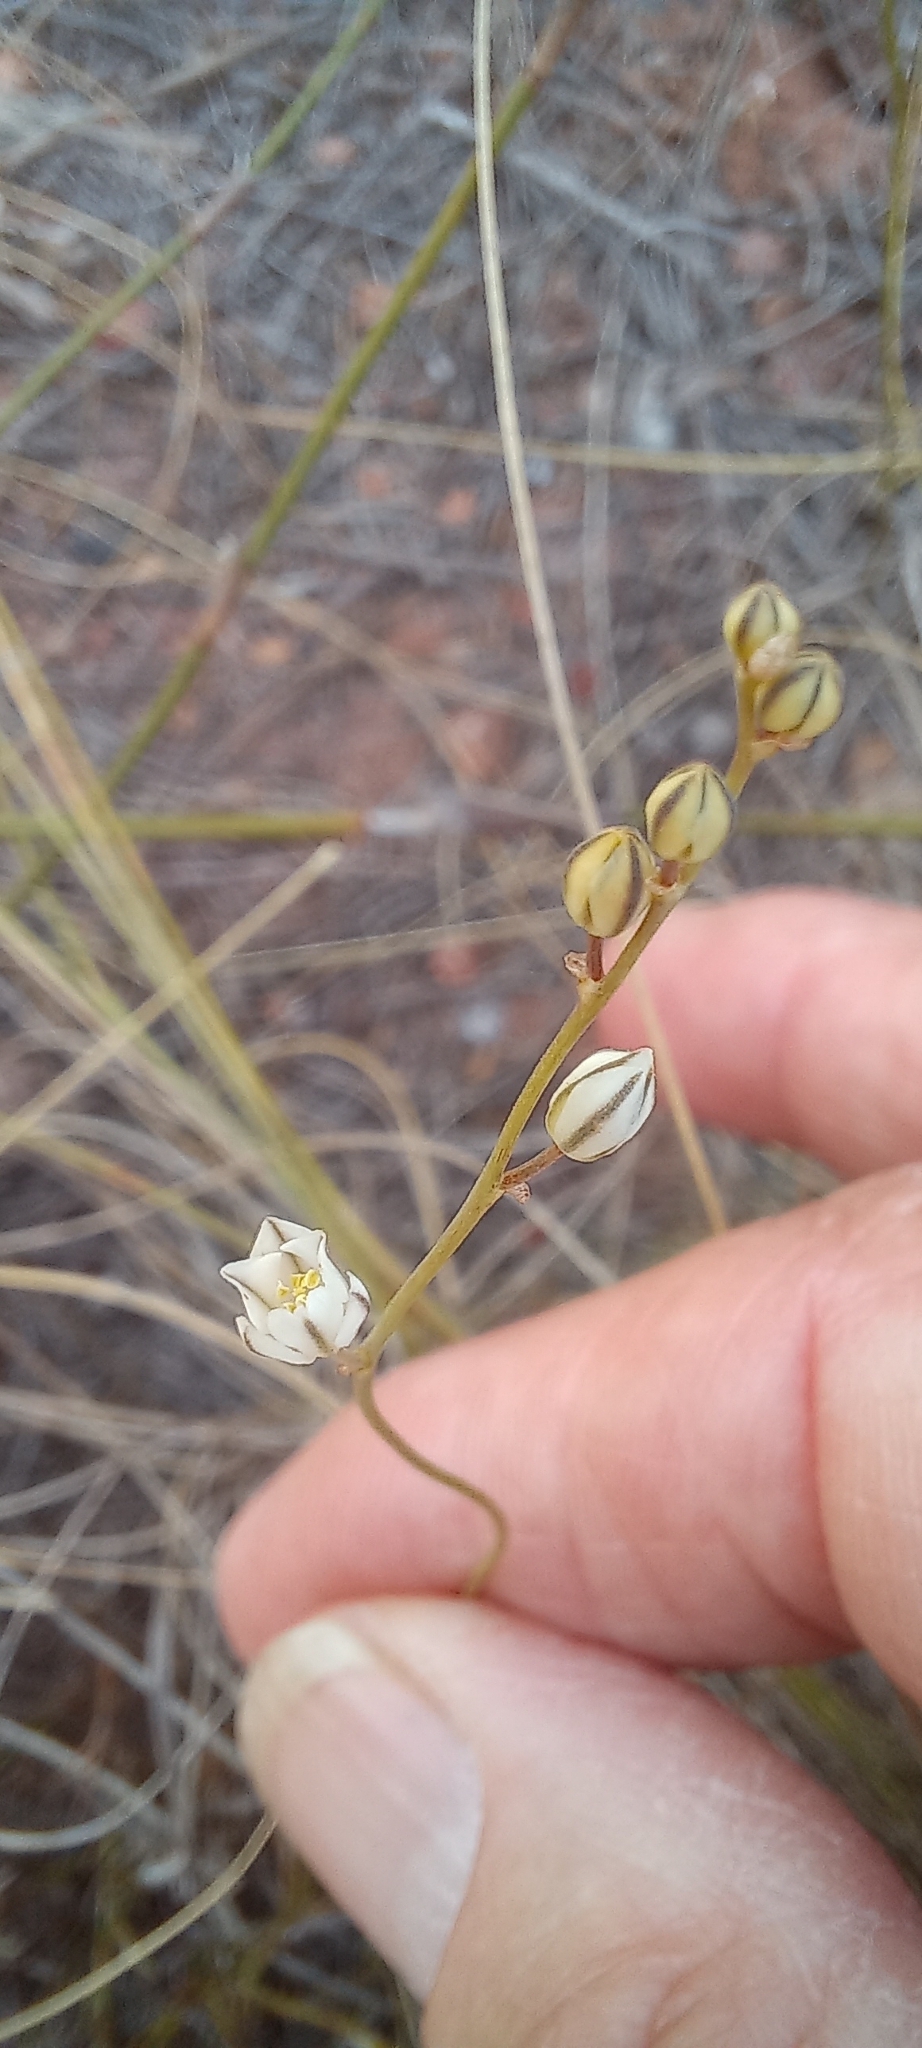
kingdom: Plantae
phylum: Tracheophyta
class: Liliopsida
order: Asparagales
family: Asparagaceae
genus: Eriospermum
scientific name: Eriospermum lanceifolium
